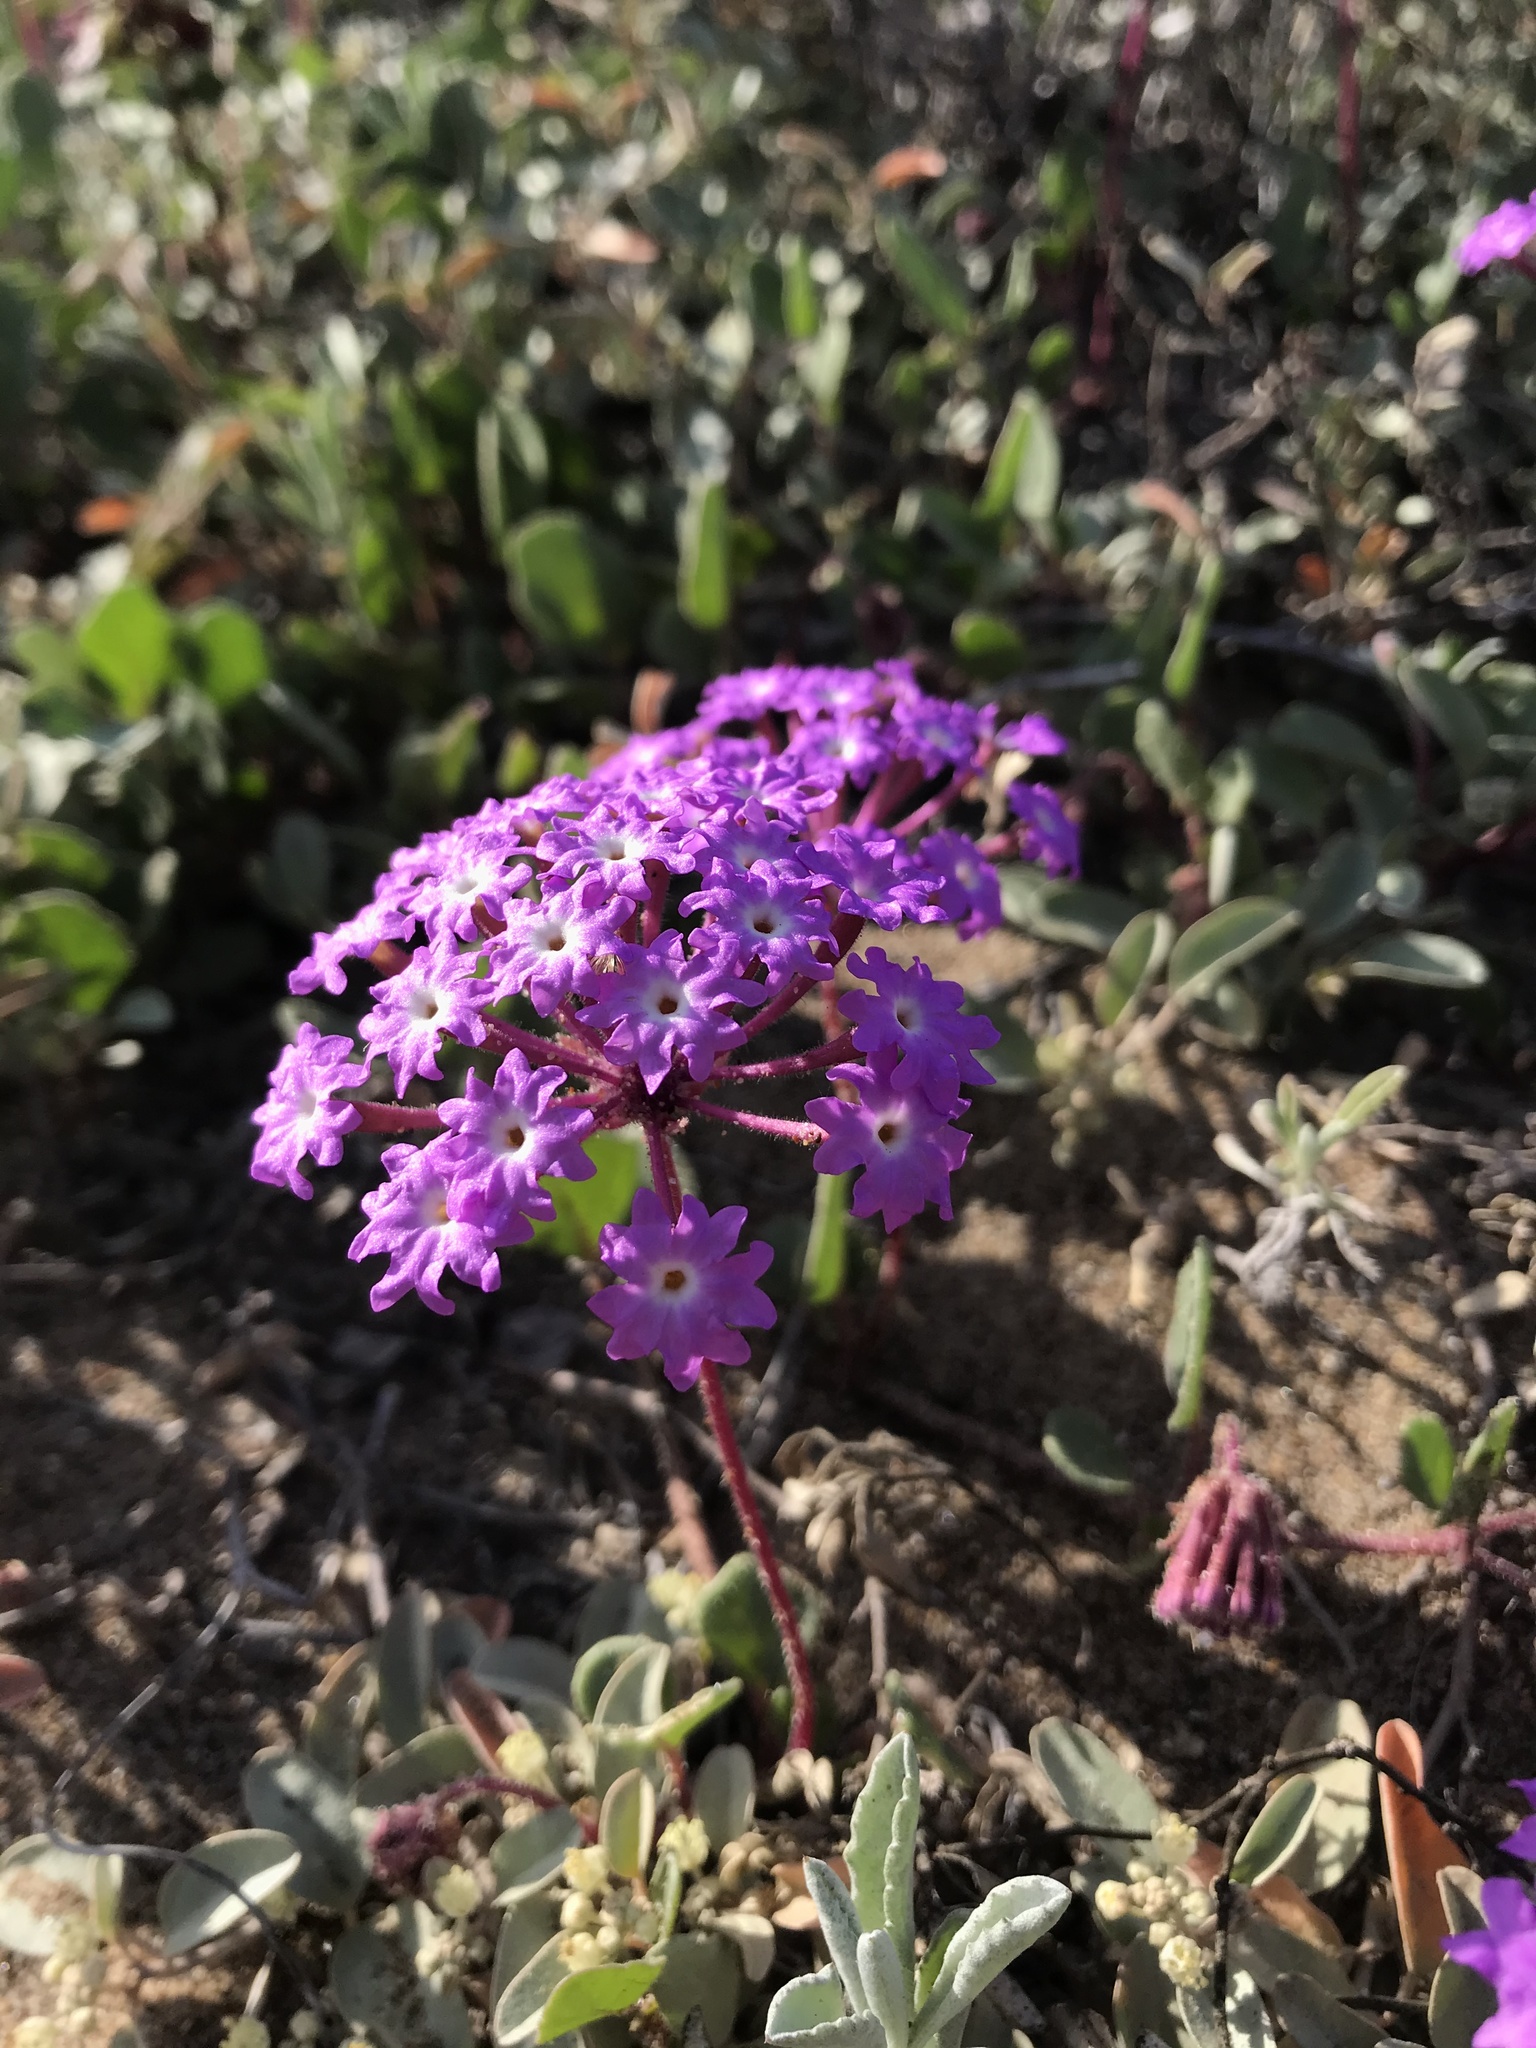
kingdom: Plantae
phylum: Tracheophyta
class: Magnoliopsida
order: Caryophyllales
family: Nyctaginaceae
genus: Abronia
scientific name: Abronia umbellata
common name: Sand-verbena
